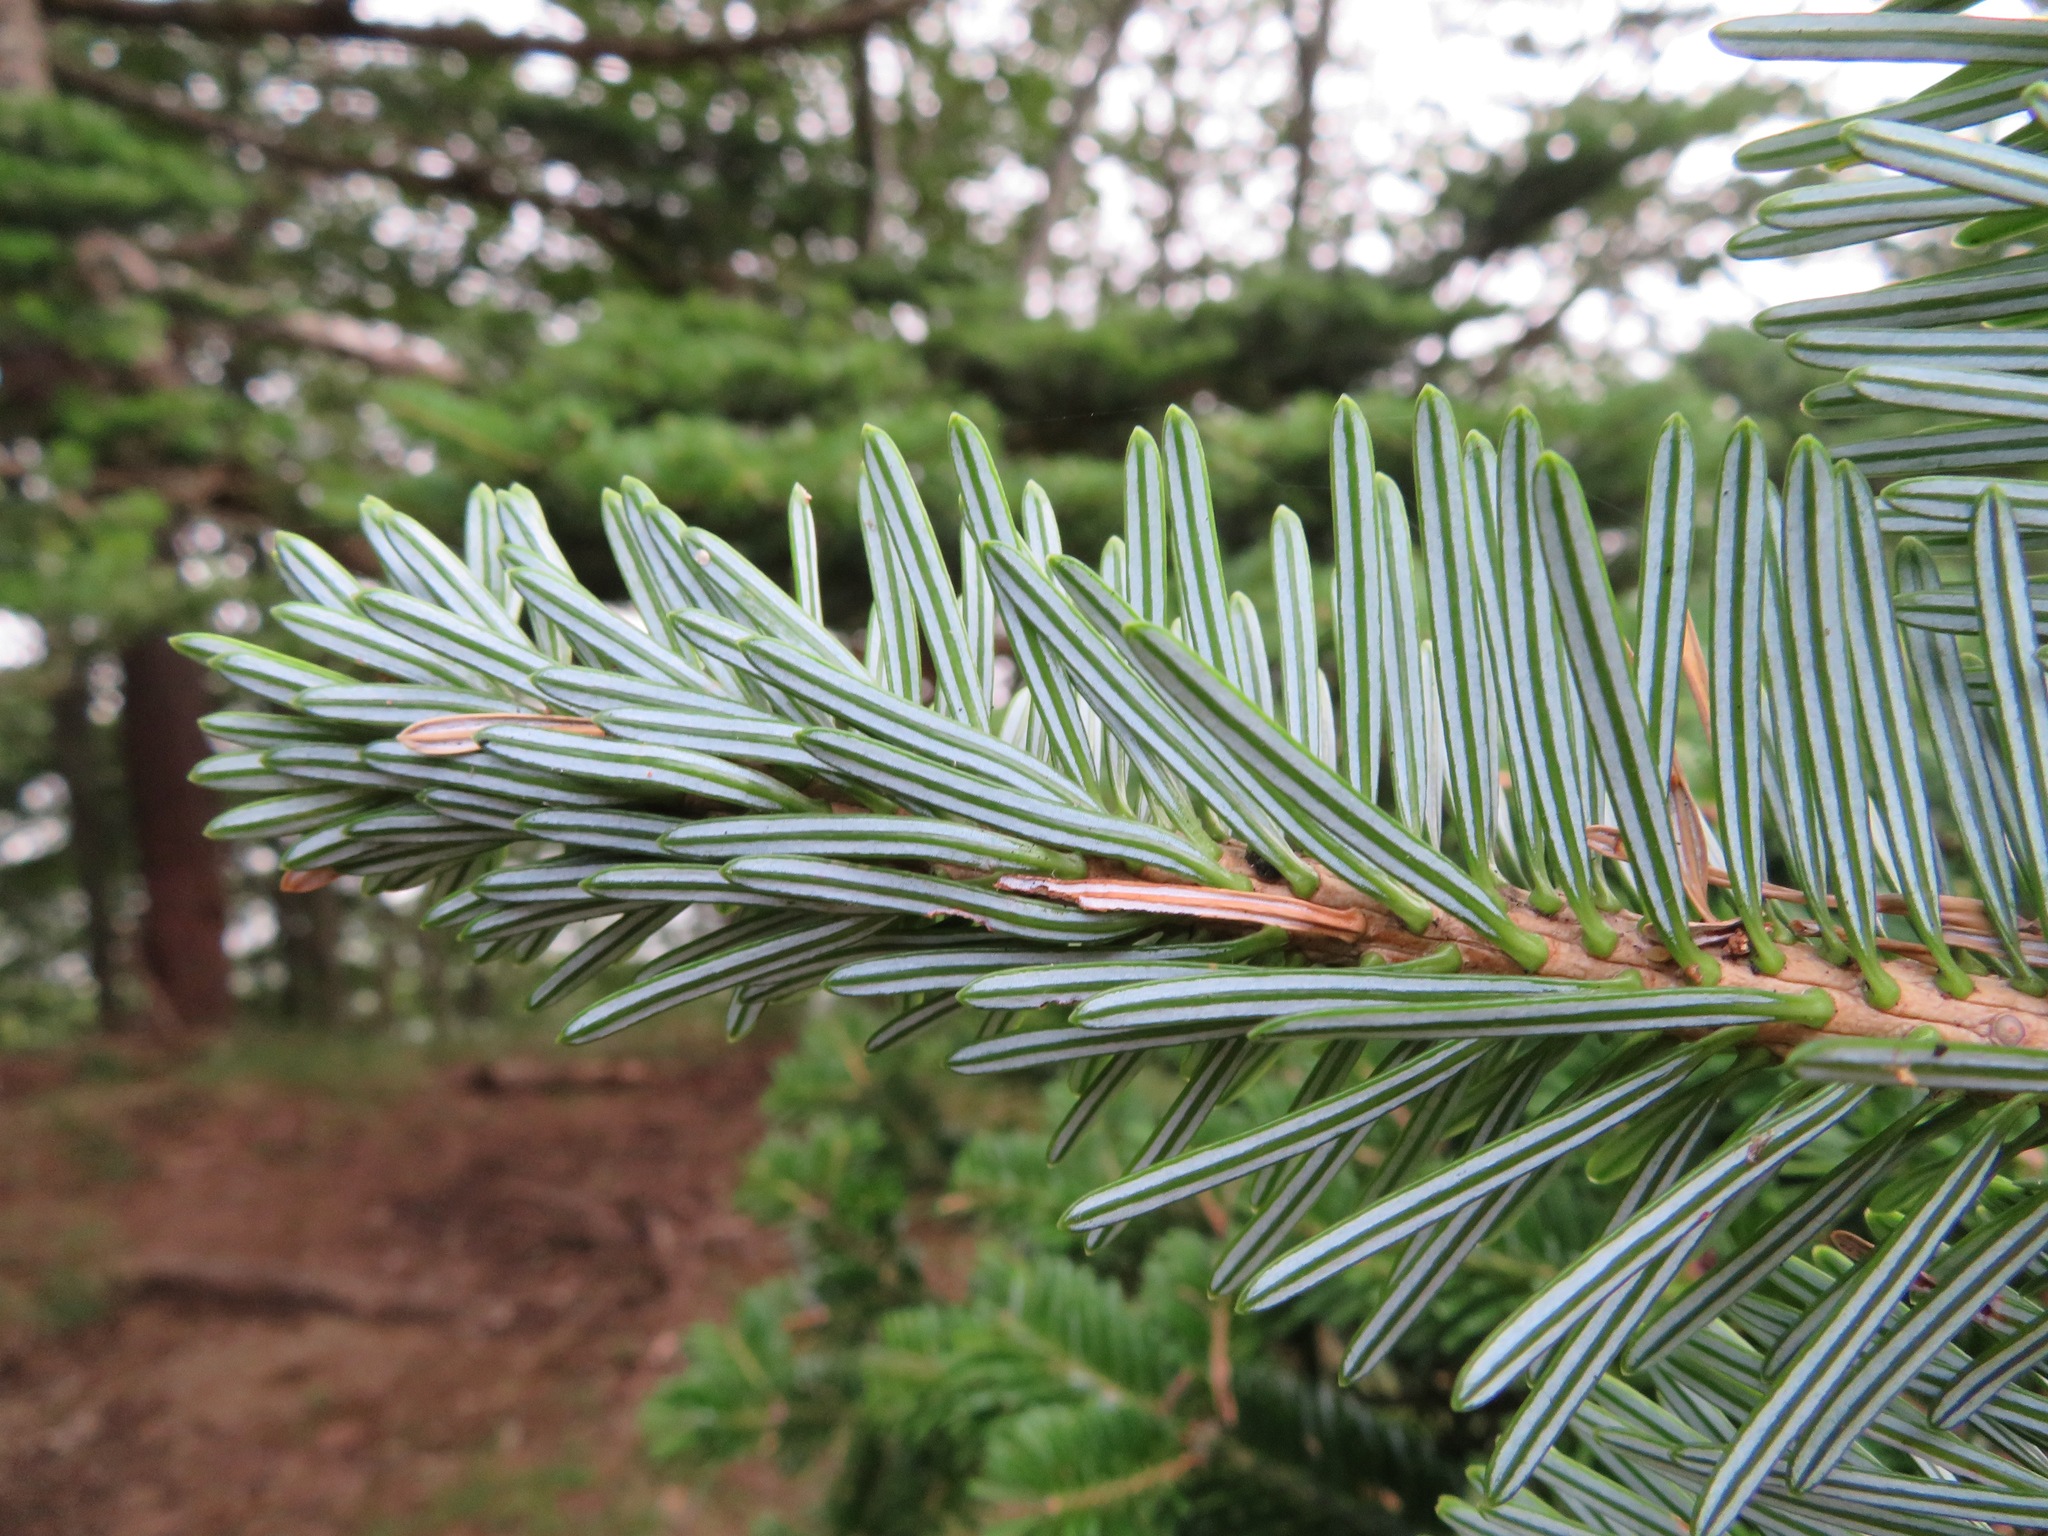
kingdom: Plantae
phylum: Tracheophyta
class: Pinopsida
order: Pinales
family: Pinaceae
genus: Tsuga
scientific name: Tsuga sieboldii
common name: Japanese hemlock
